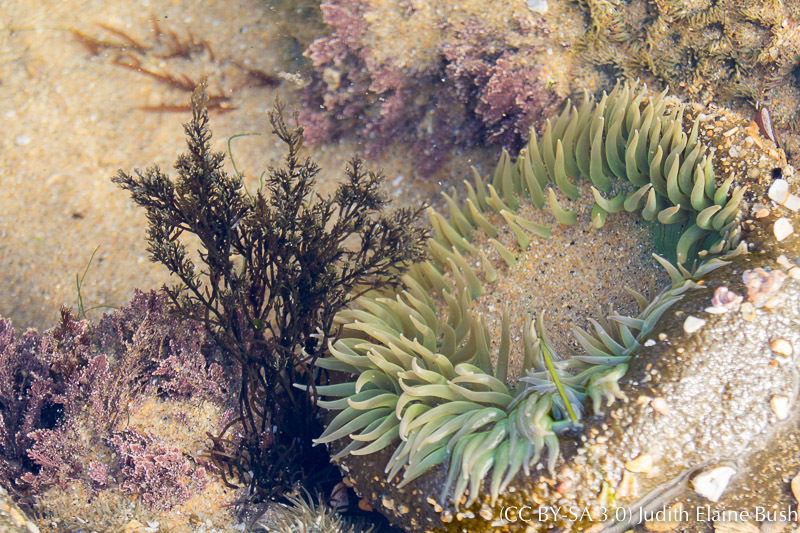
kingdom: Animalia
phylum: Cnidaria
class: Anthozoa
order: Actiniaria
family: Actiniidae
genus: Anthopleura
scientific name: Anthopleura xanthogrammica
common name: Giant green anemone
